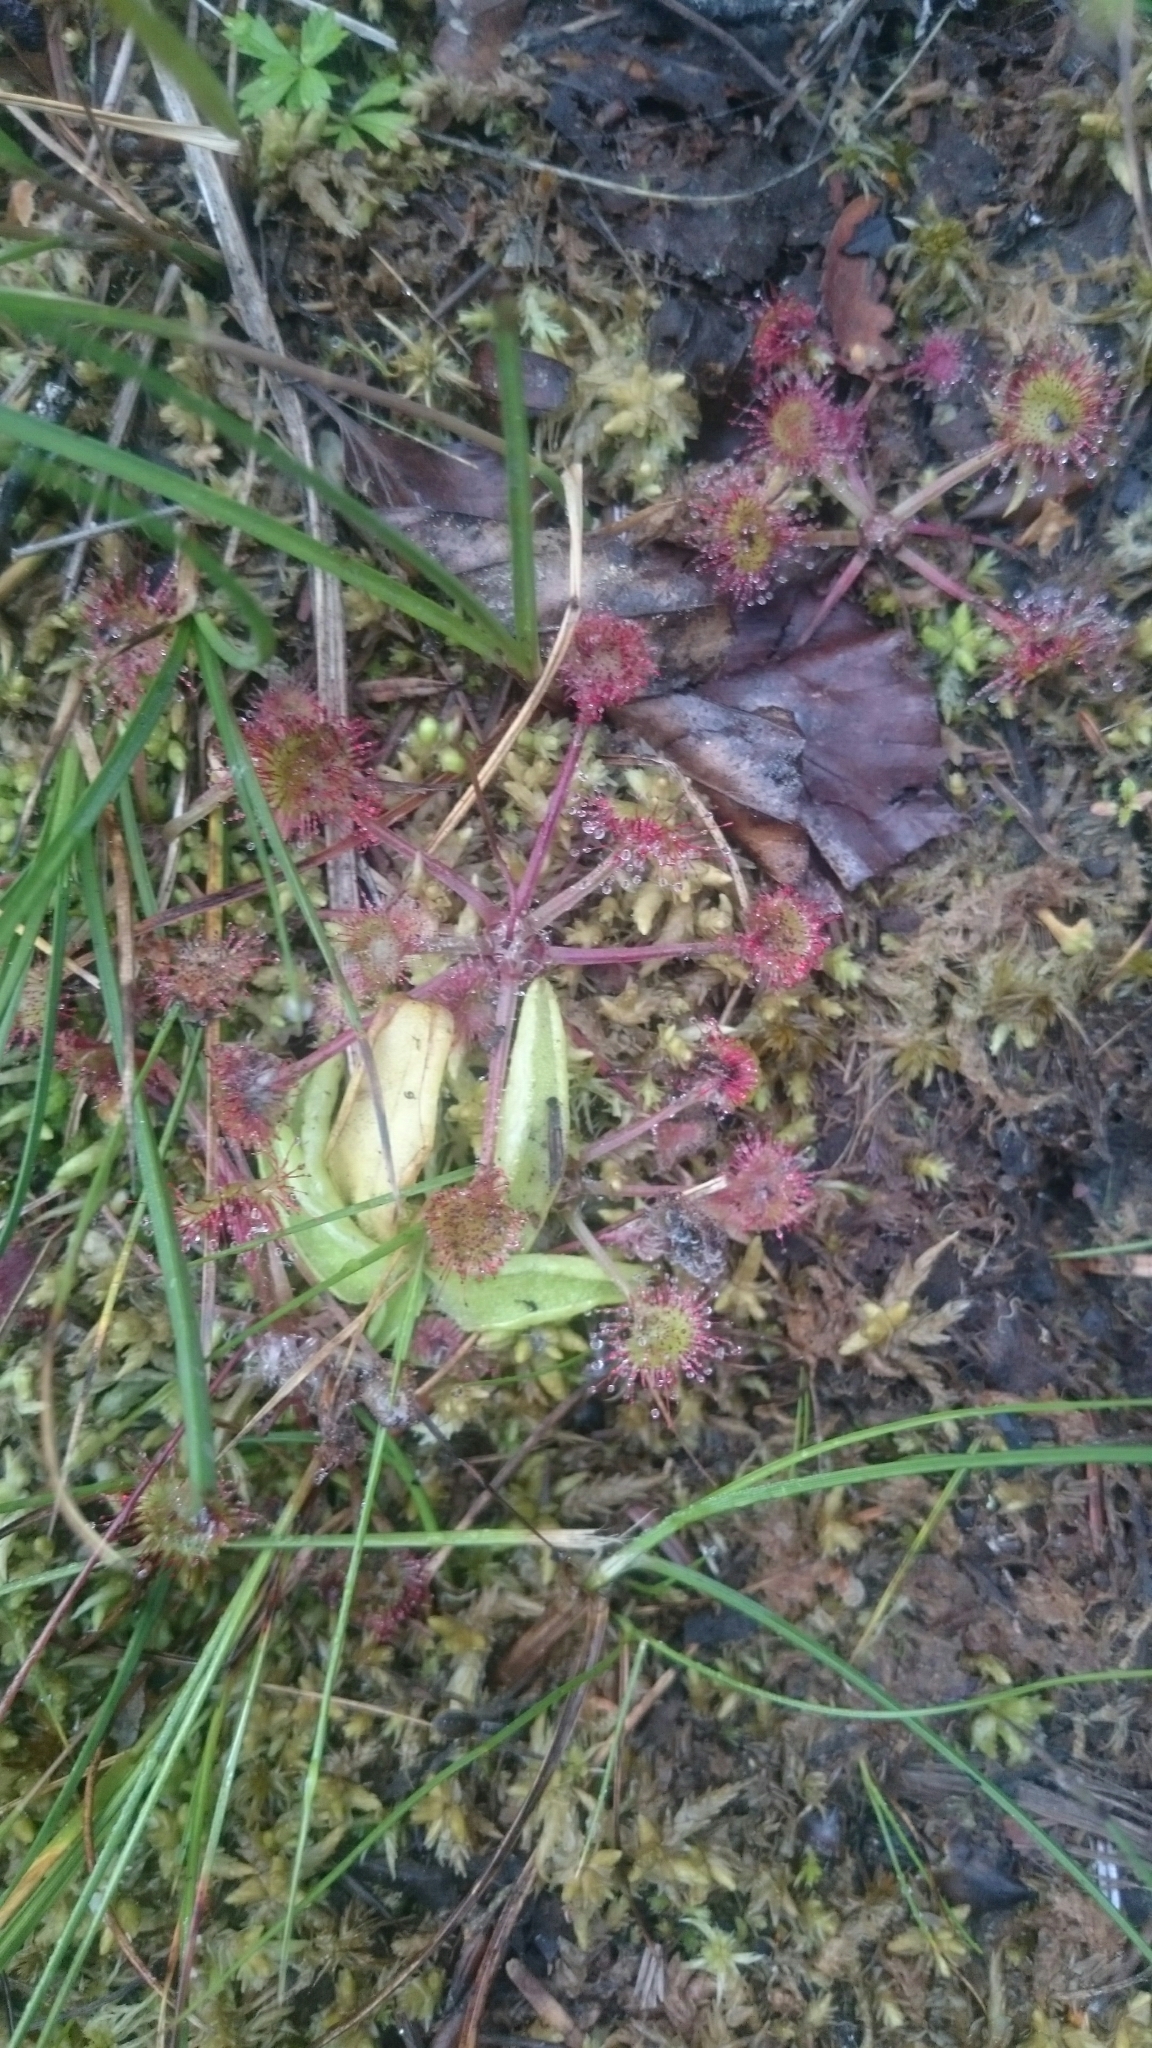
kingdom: Plantae
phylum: Tracheophyta
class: Magnoliopsida
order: Lamiales
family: Lentibulariaceae
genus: Pinguicula
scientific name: Pinguicula vulgaris
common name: Common butterwort
